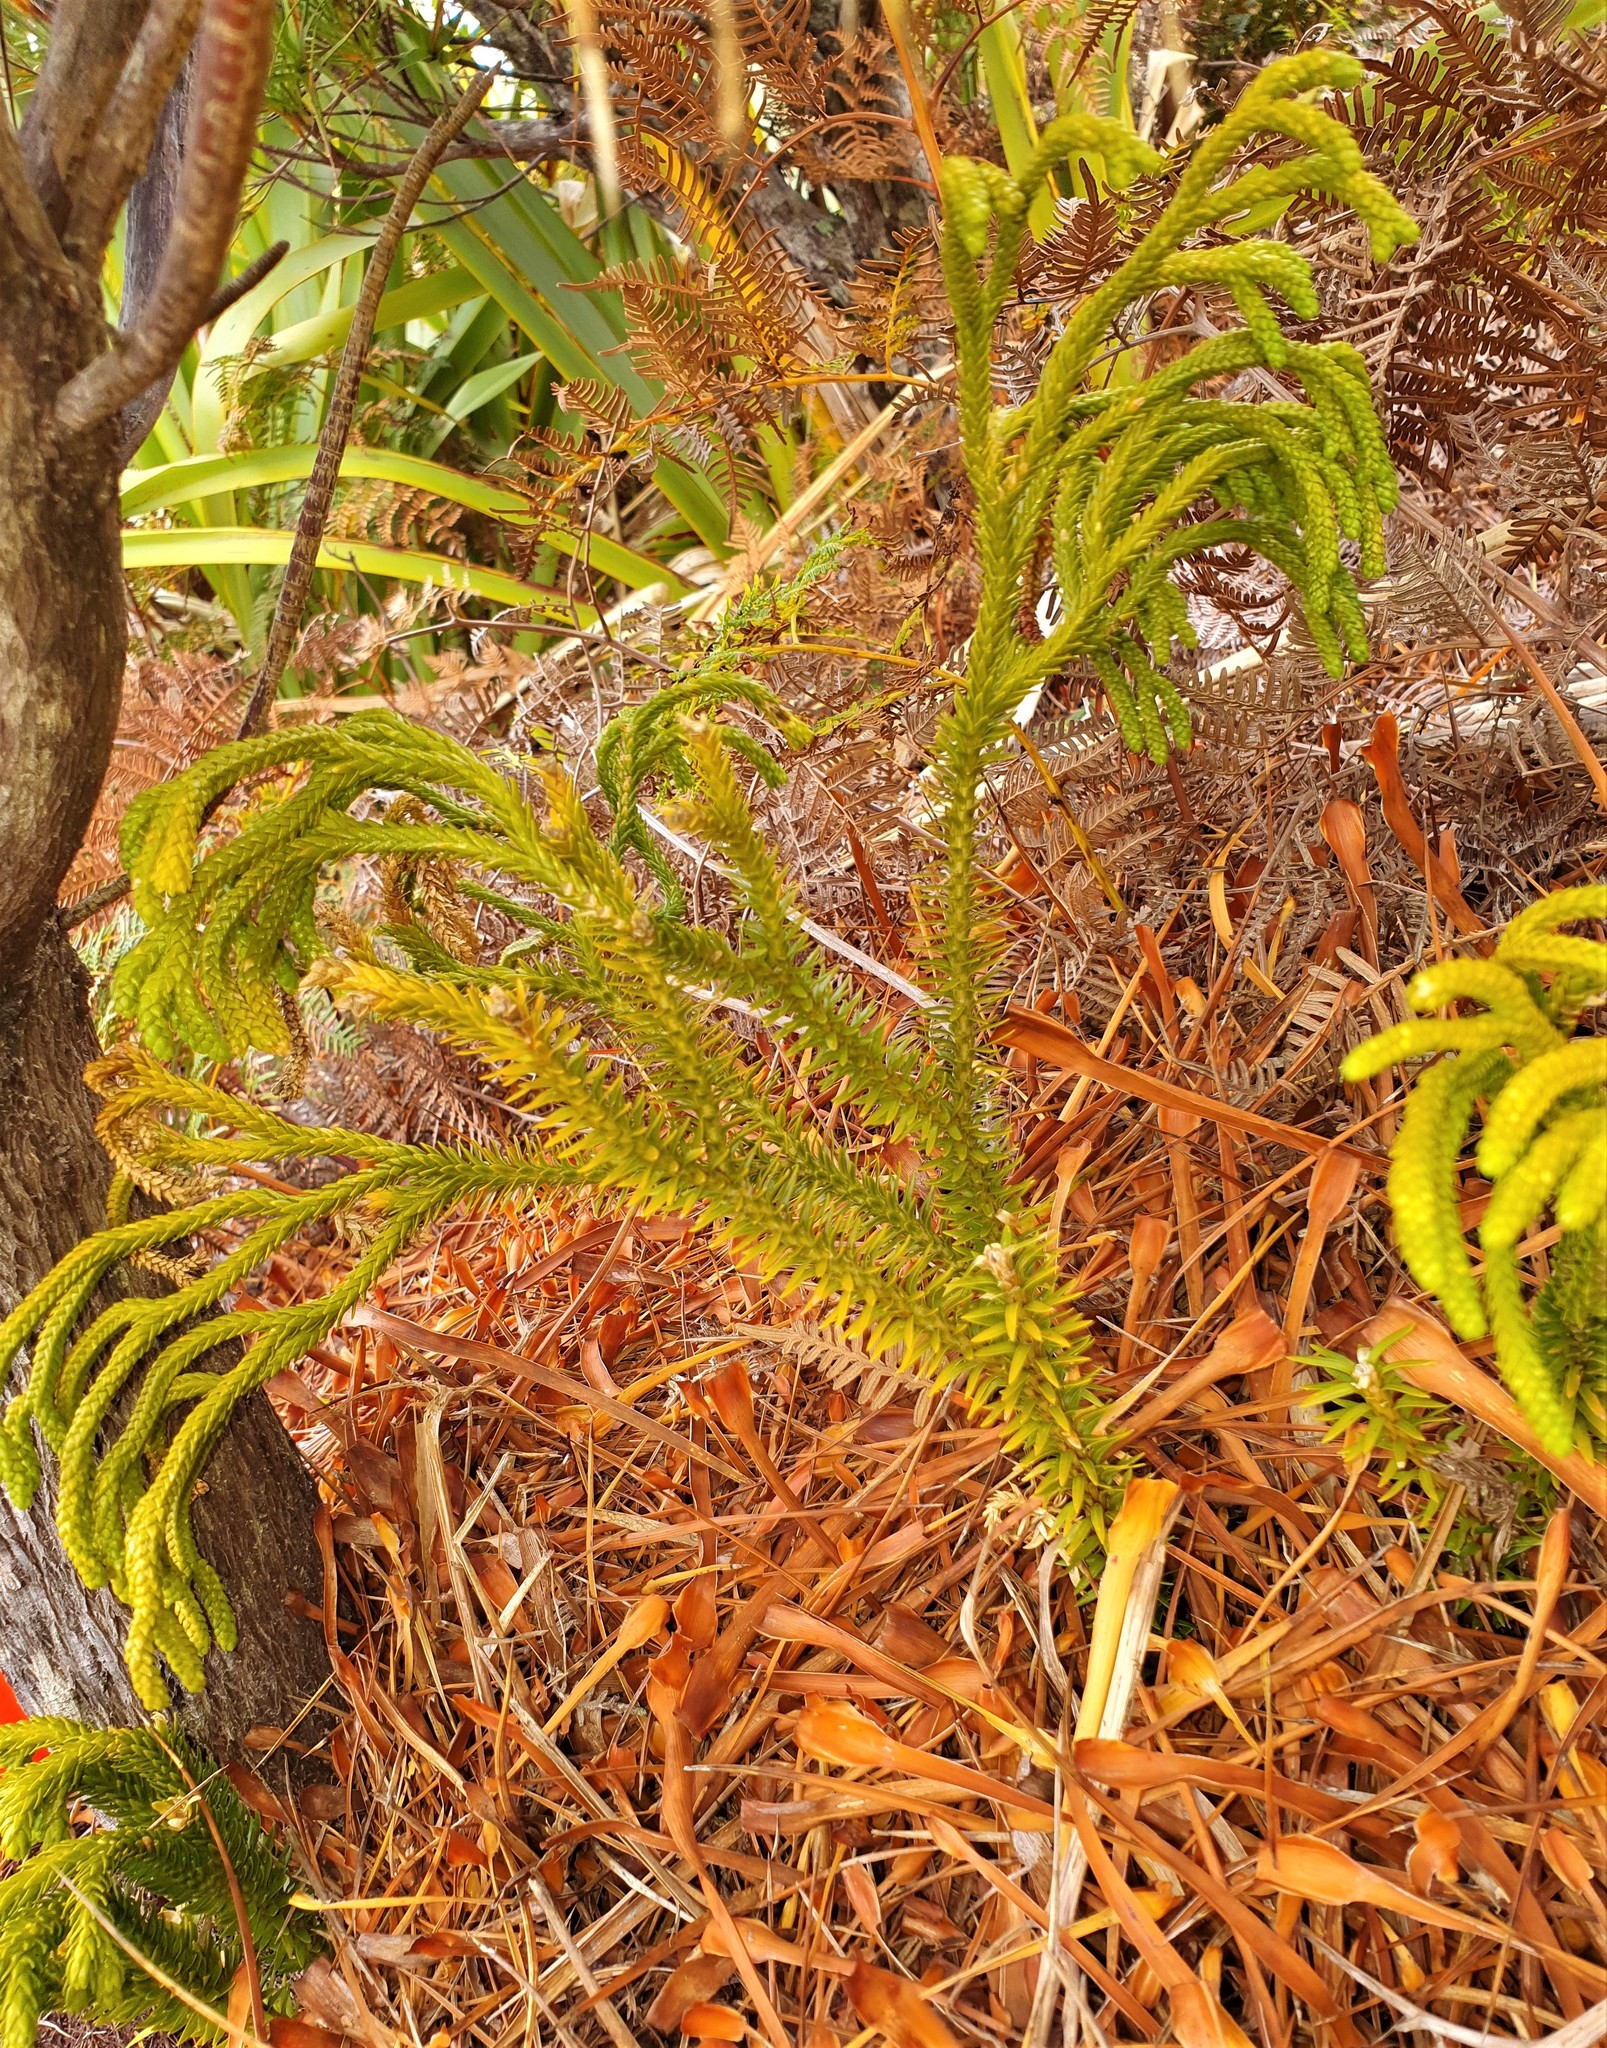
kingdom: Plantae
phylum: Tracheophyta
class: Lycopodiopsida
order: Lycopodiales
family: Lycopodiaceae
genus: Phlegmariurus
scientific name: Phlegmariurus varius
